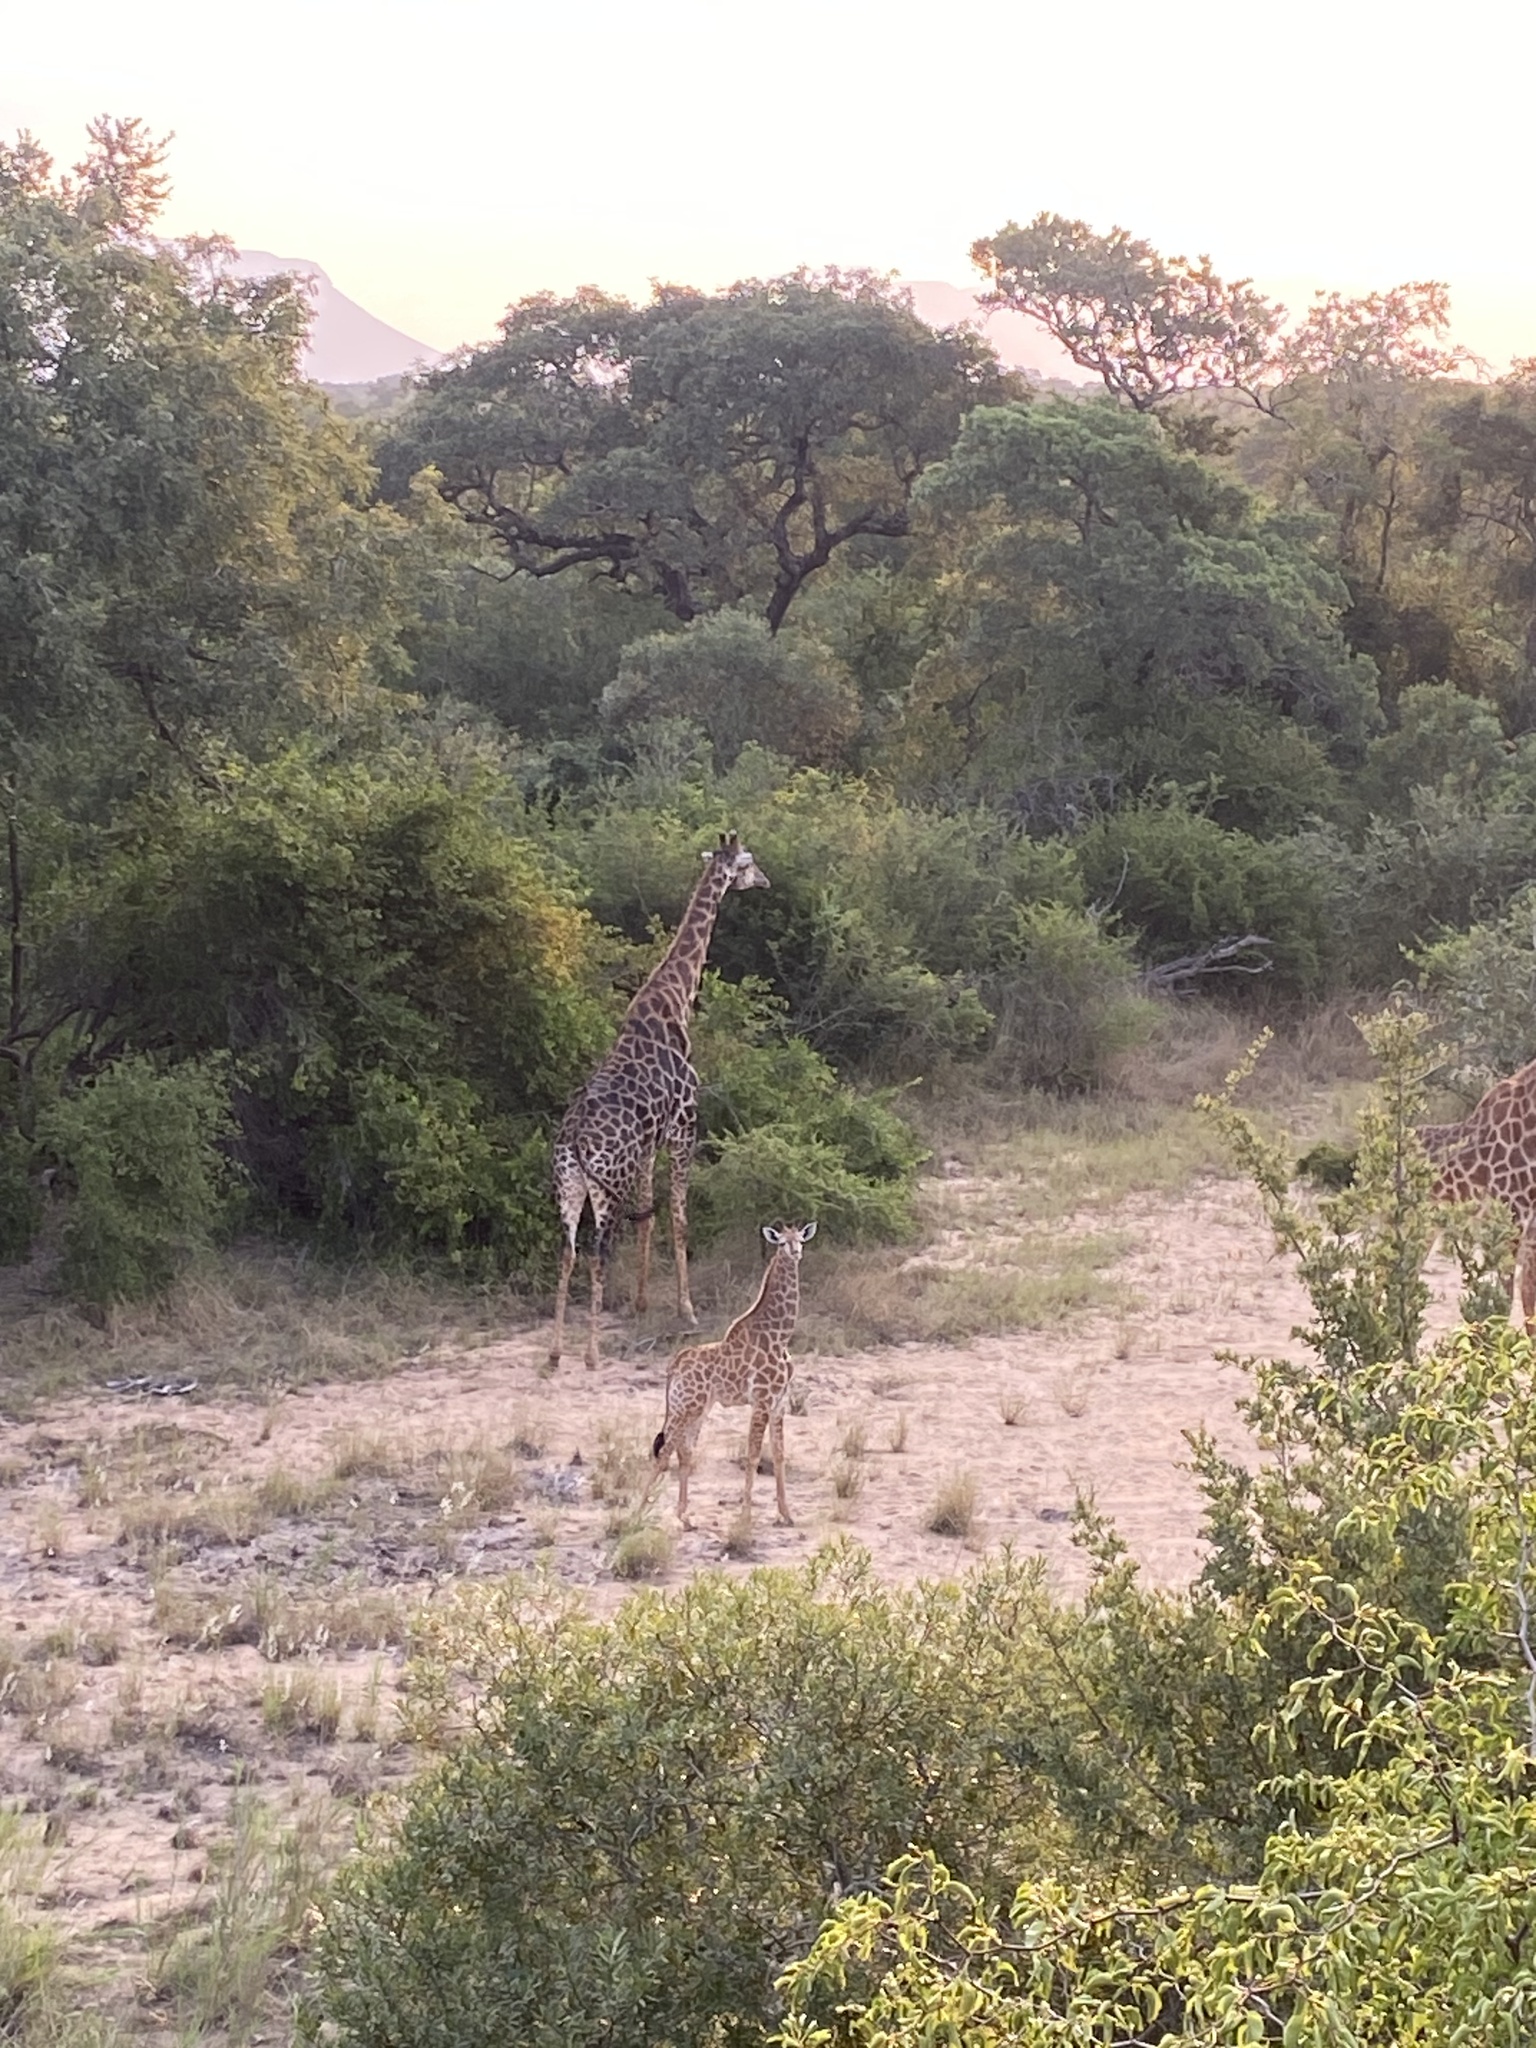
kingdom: Animalia
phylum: Chordata
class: Mammalia
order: Artiodactyla
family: Giraffidae
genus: Giraffa
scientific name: Giraffa giraffa
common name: Southern giraffe
